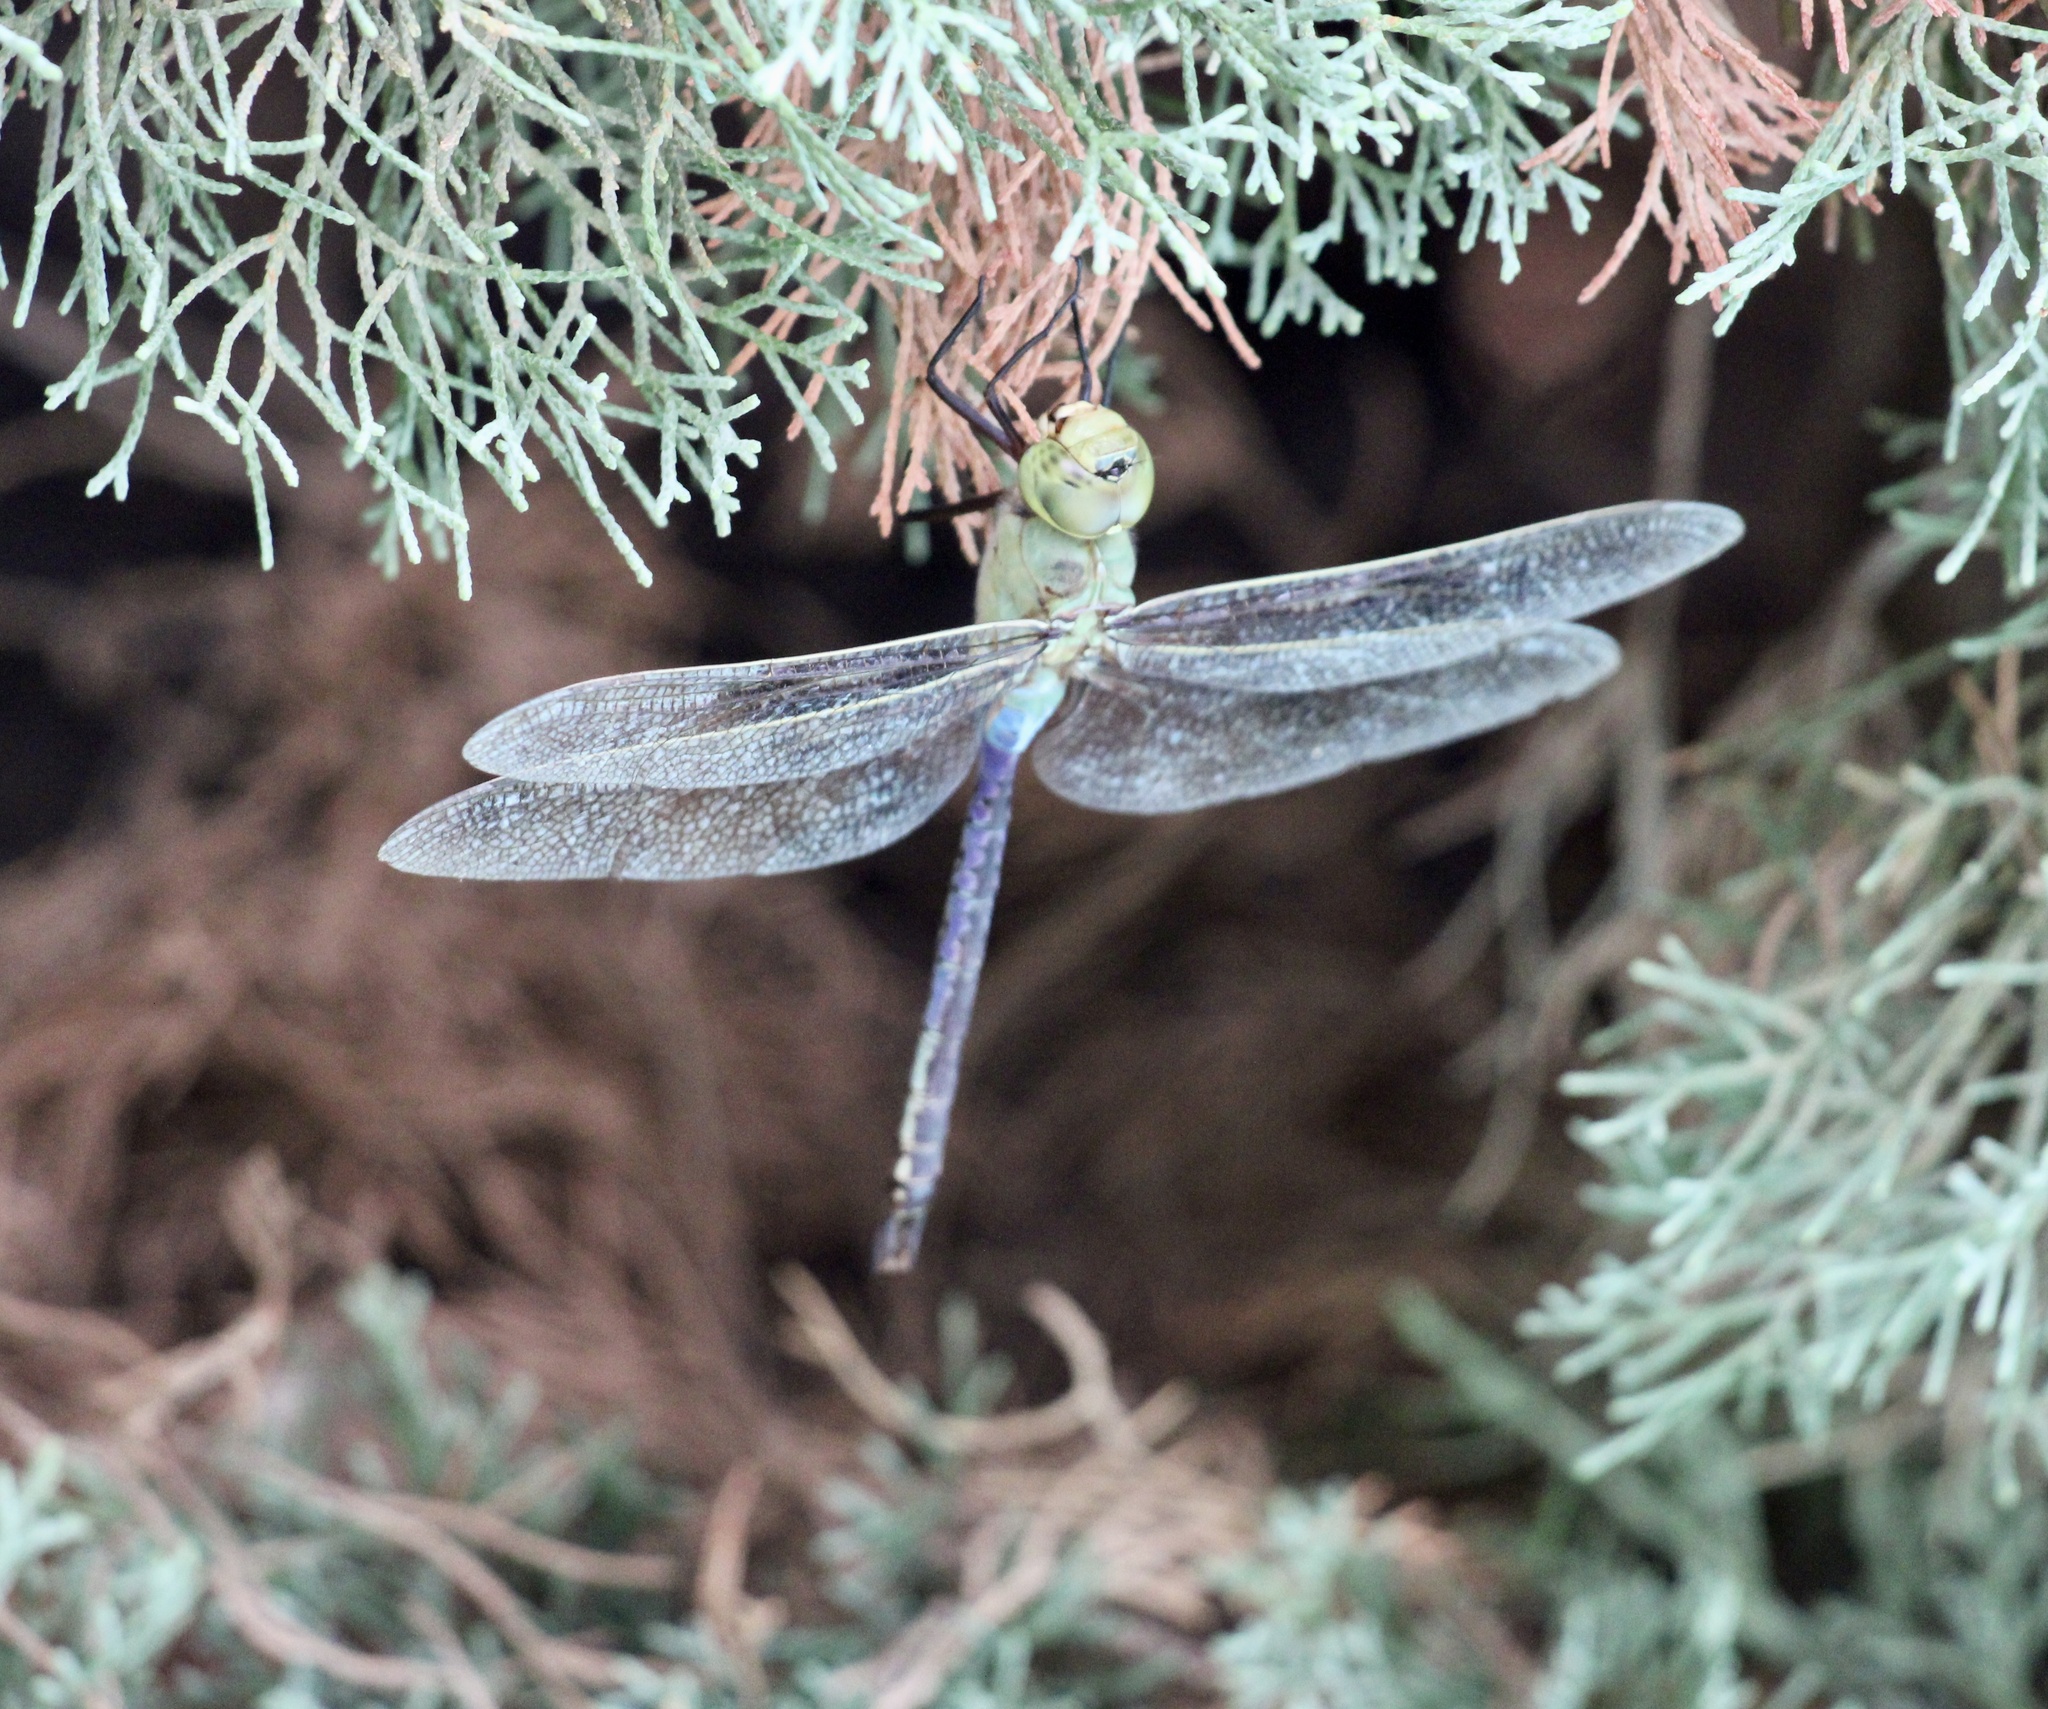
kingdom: Animalia
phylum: Arthropoda
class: Insecta
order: Odonata
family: Aeshnidae
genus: Anax
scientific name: Anax junius
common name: Common green darner
